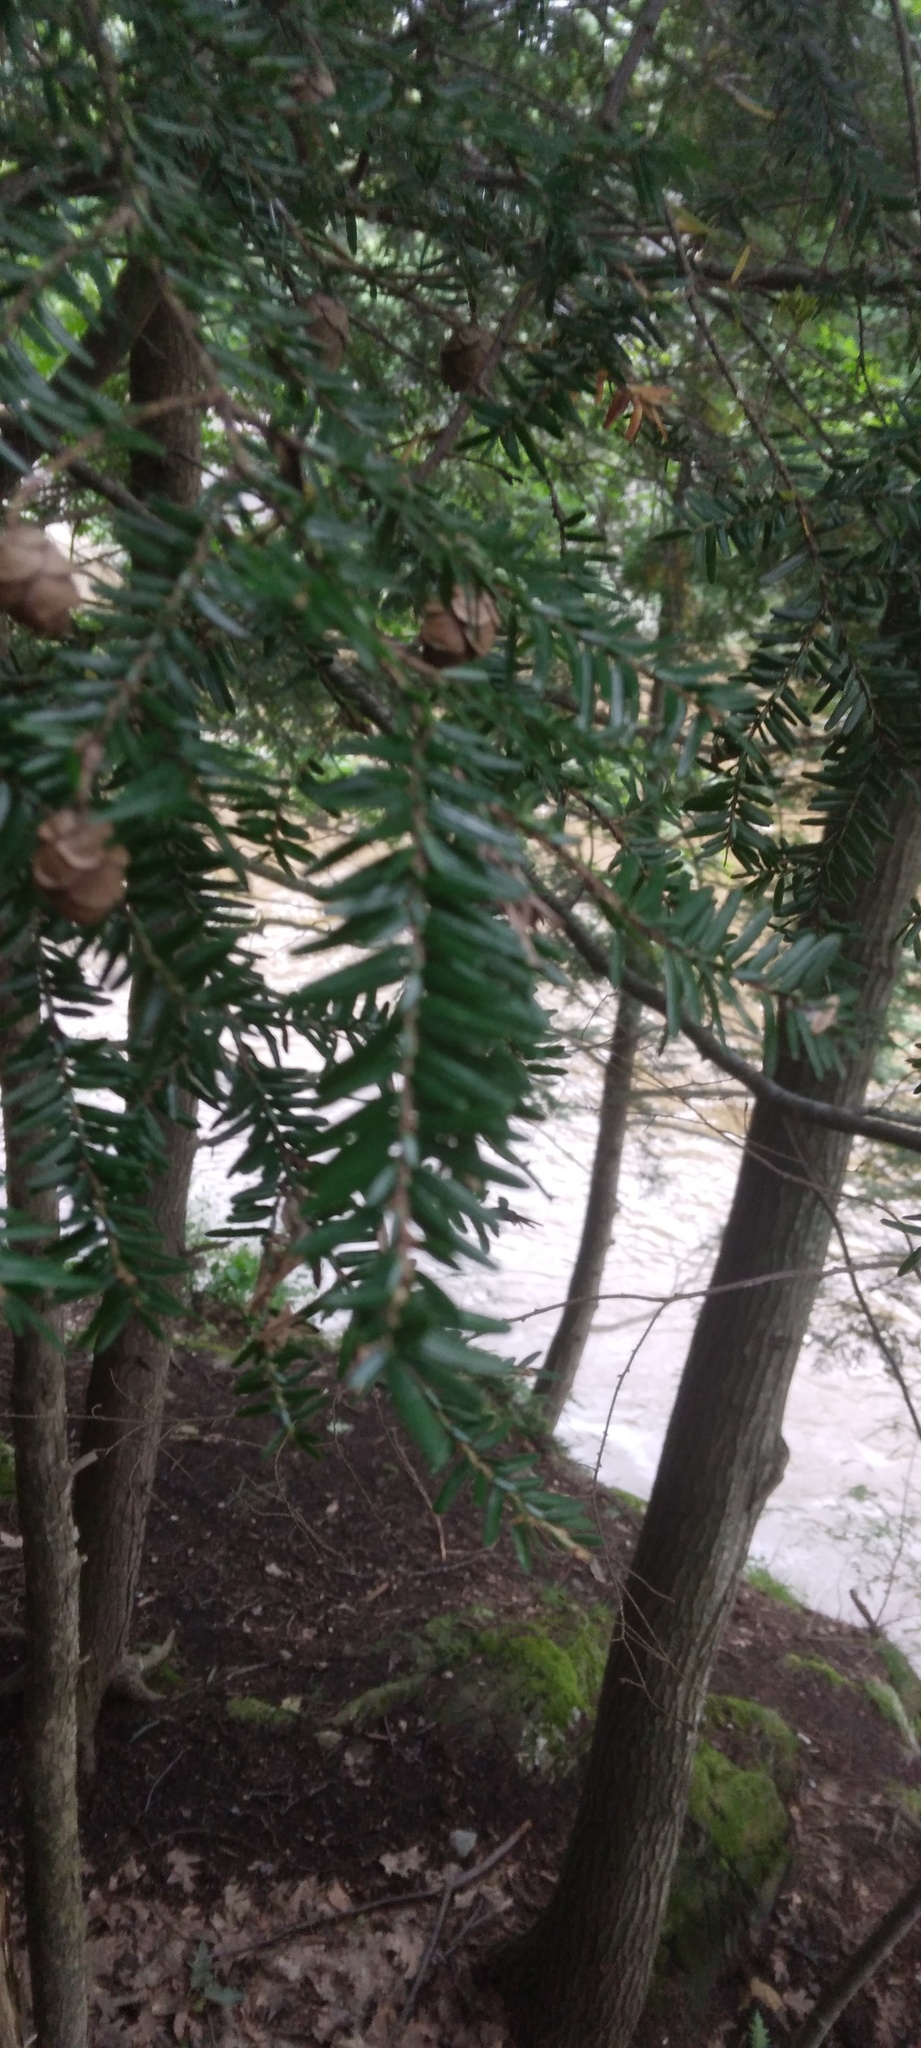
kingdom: Plantae
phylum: Tracheophyta
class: Pinopsida
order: Pinales
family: Pinaceae
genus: Tsuga
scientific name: Tsuga canadensis
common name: Eastern hemlock
